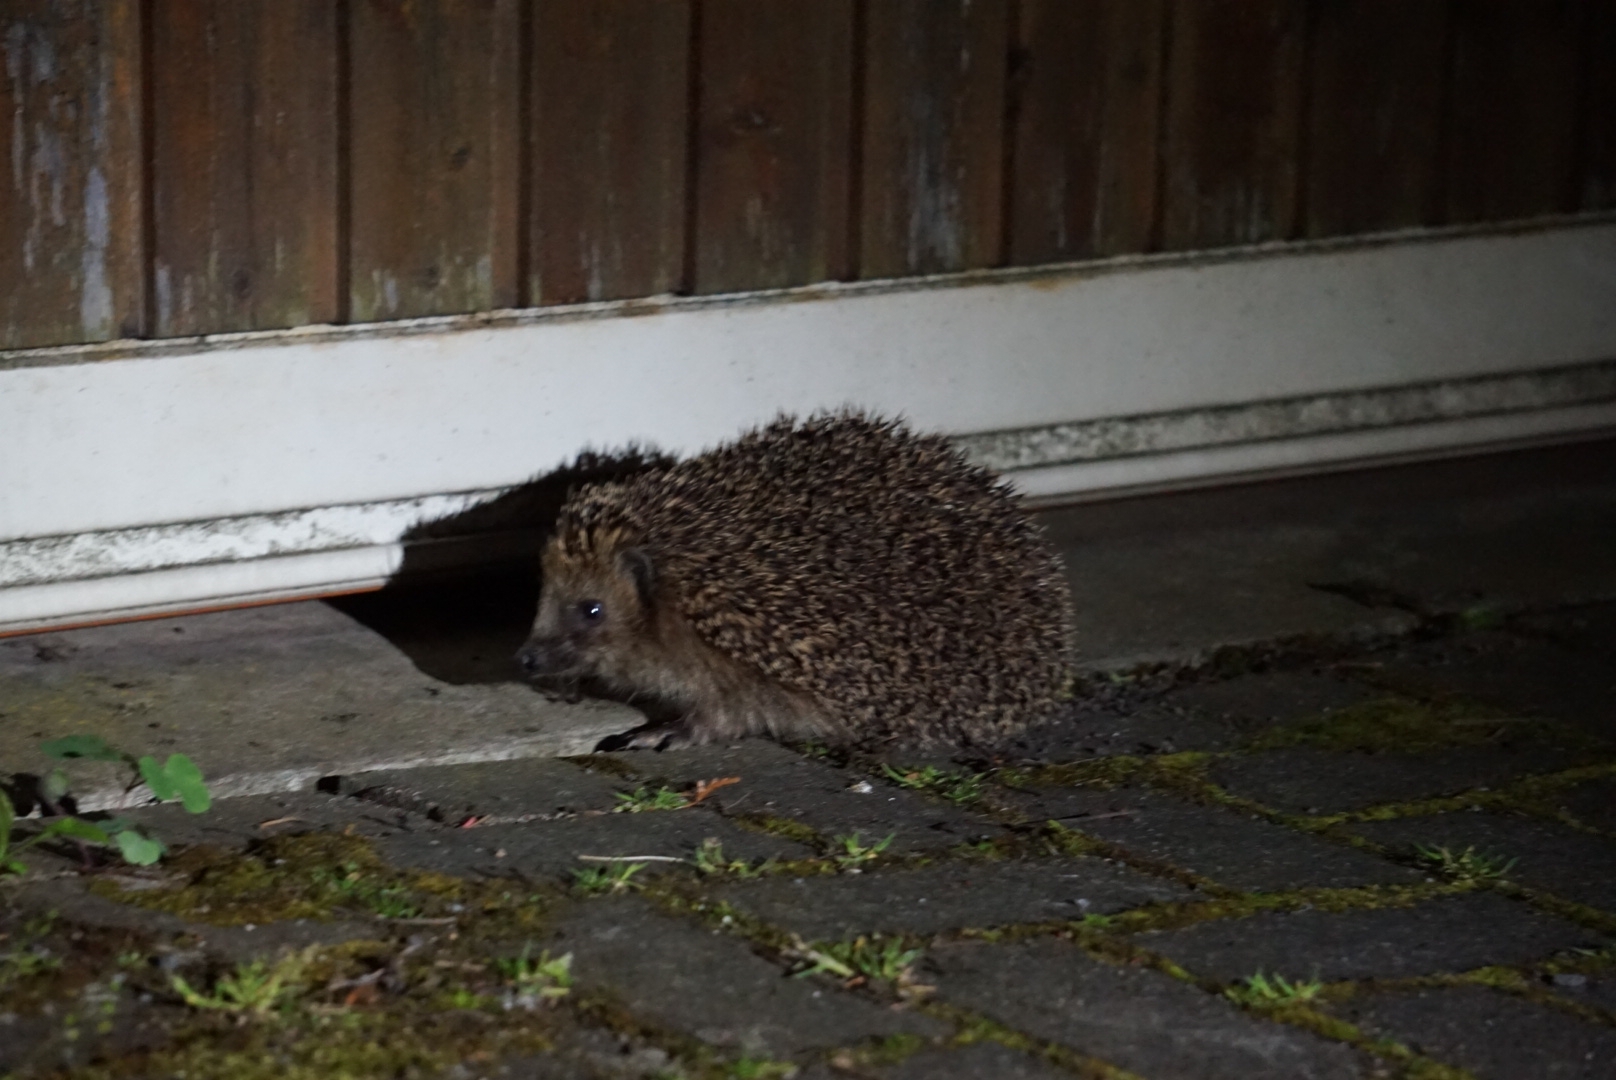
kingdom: Animalia
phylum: Chordata
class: Mammalia
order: Erinaceomorpha
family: Erinaceidae
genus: Erinaceus
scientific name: Erinaceus europaeus
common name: West european hedgehog
